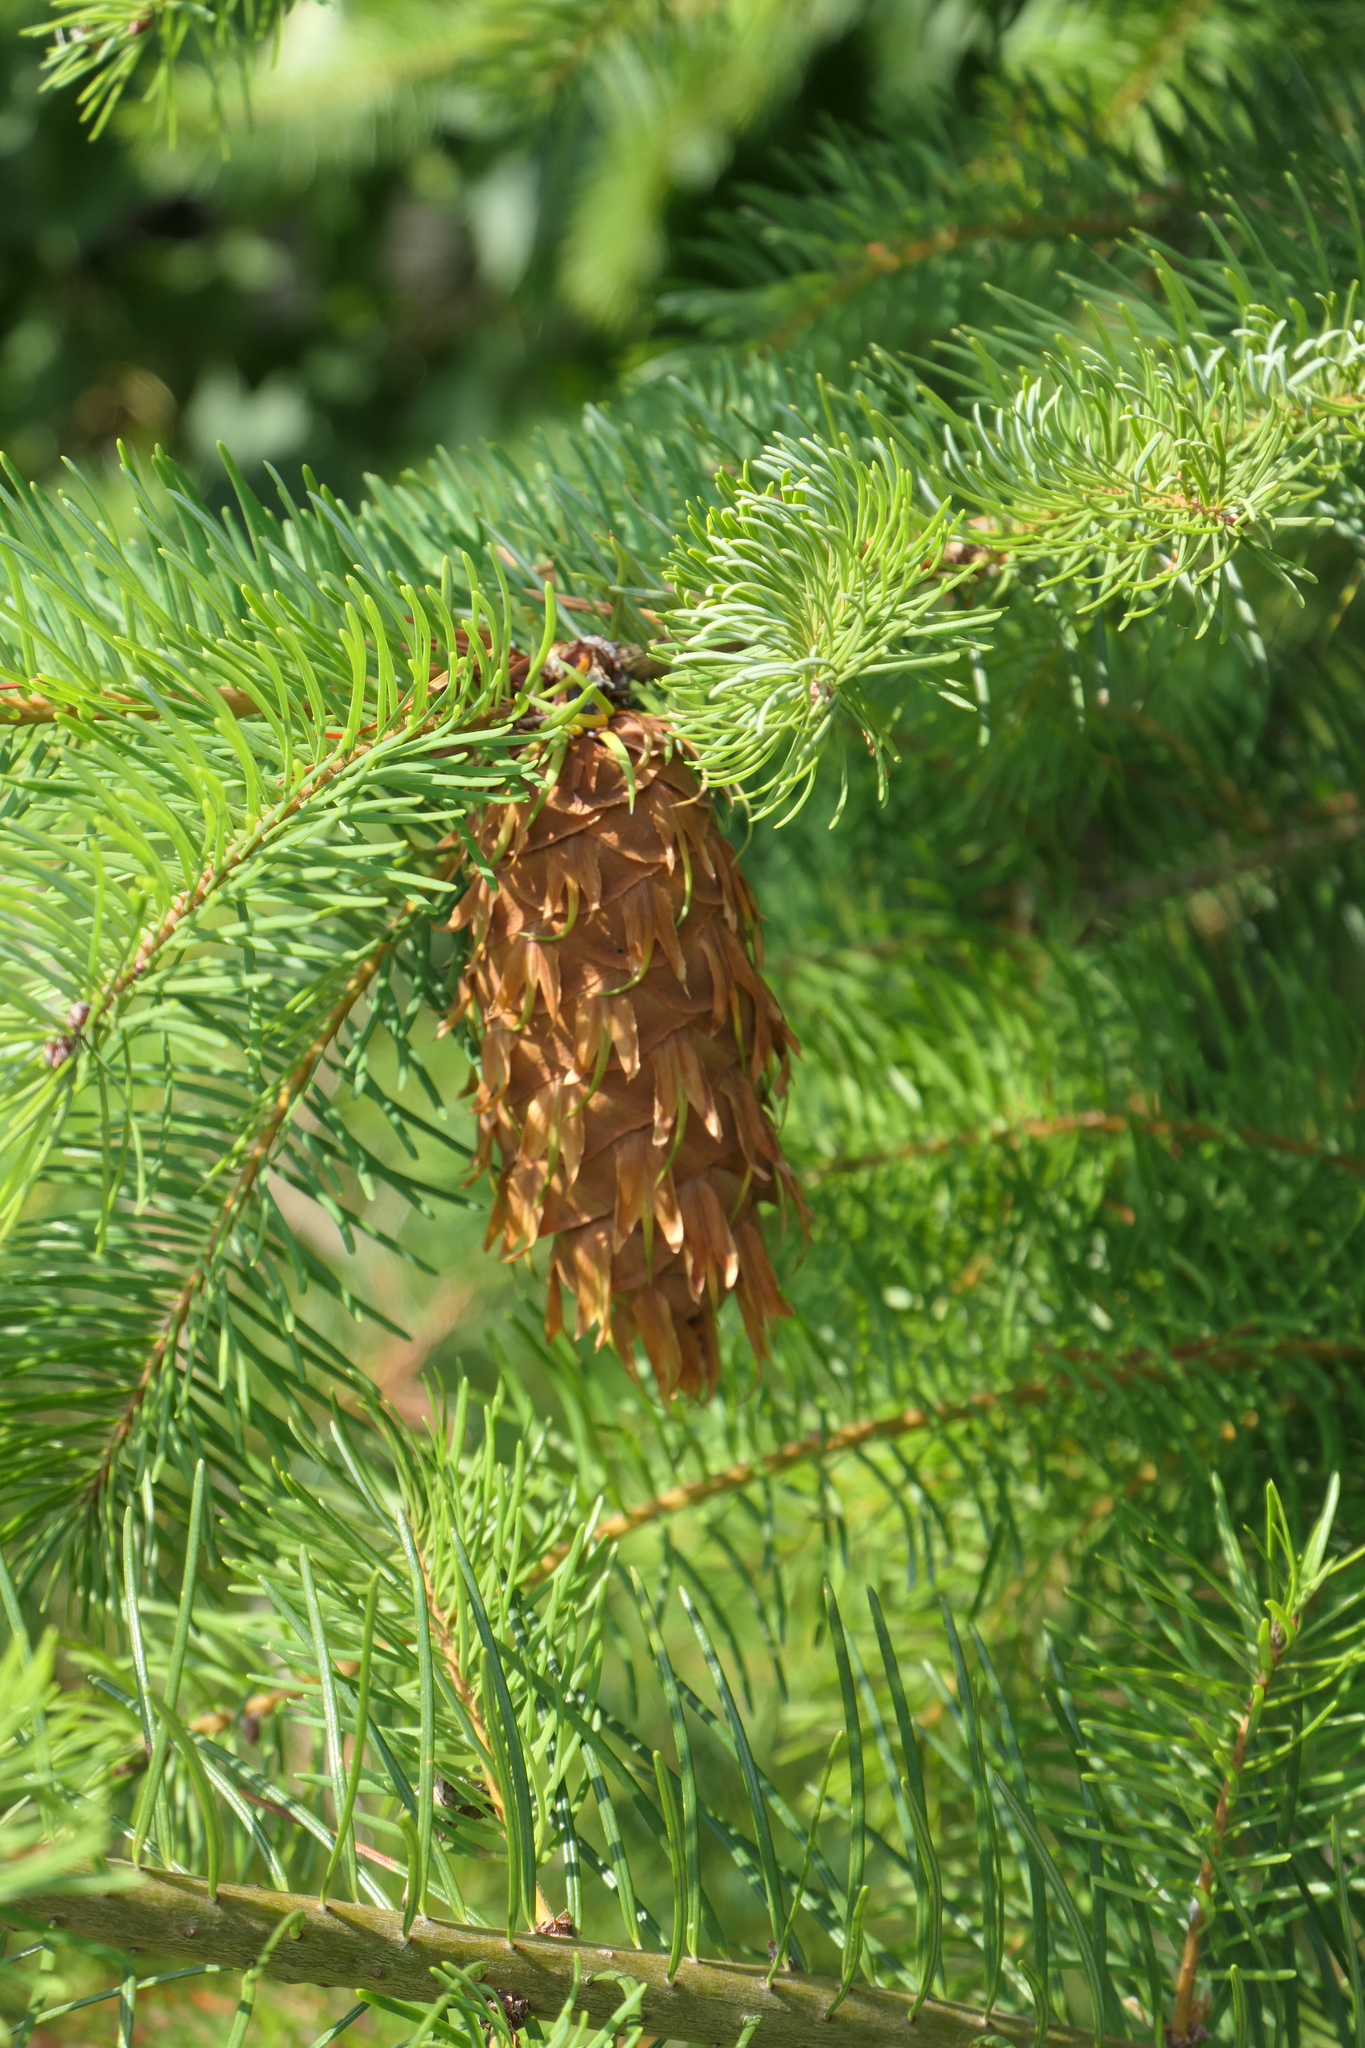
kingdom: Plantae
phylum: Tracheophyta
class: Pinopsida
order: Pinales
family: Pinaceae
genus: Pseudotsuga
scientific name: Pseudotsuga menziesii
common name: Douglas fir
